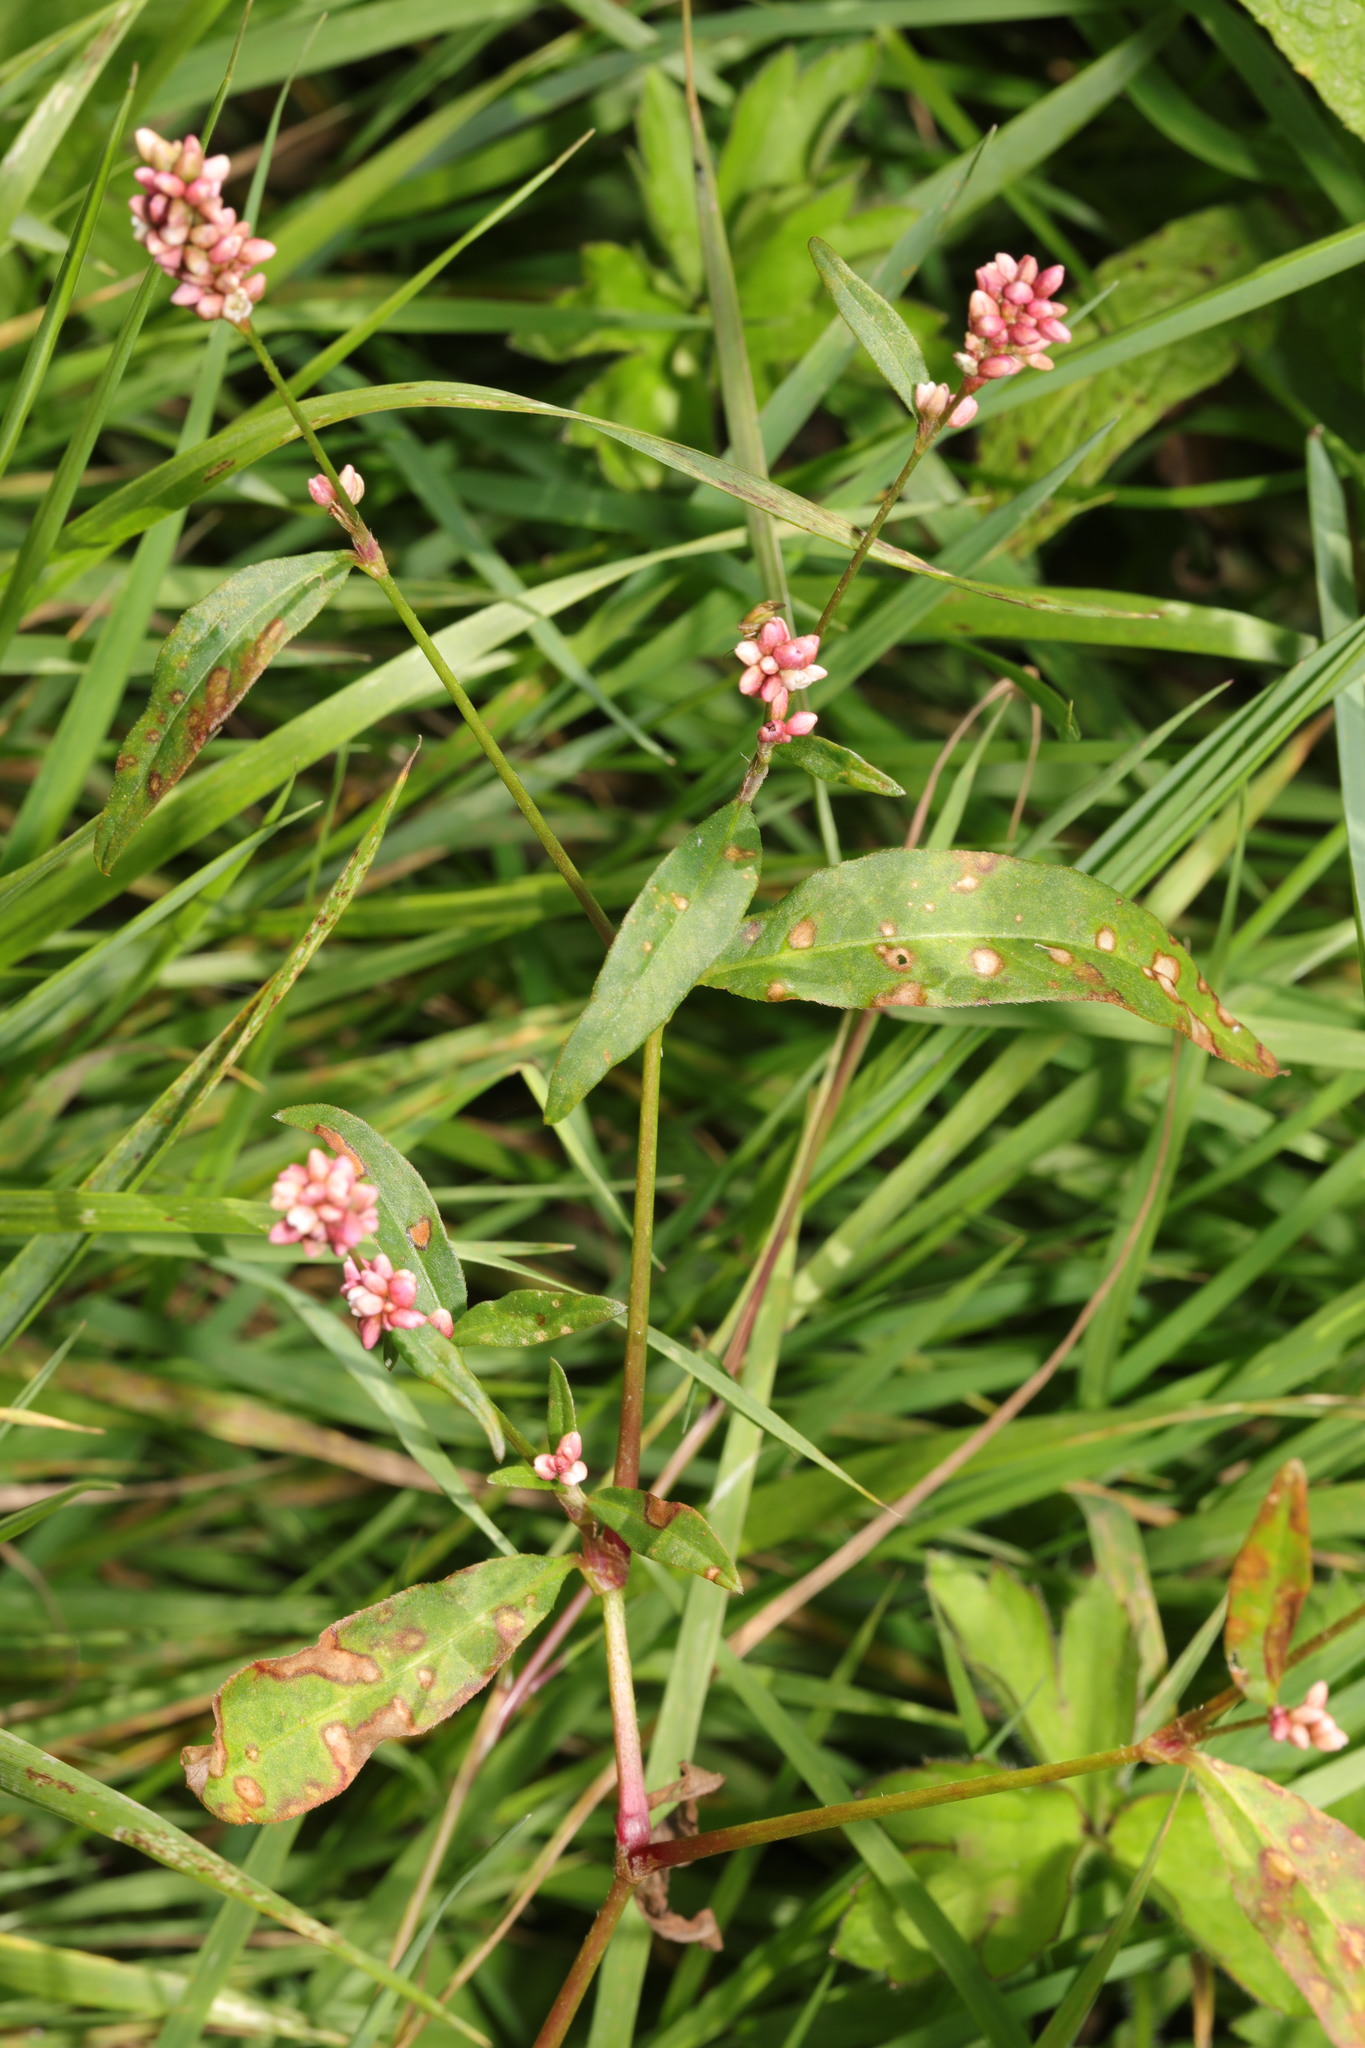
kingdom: Plantae
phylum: Tracheophyta
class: Magnoliopsida
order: Caryophyllales
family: Polygonaceae
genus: Persicaria
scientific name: Persicaria maculosa
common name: Redshank
